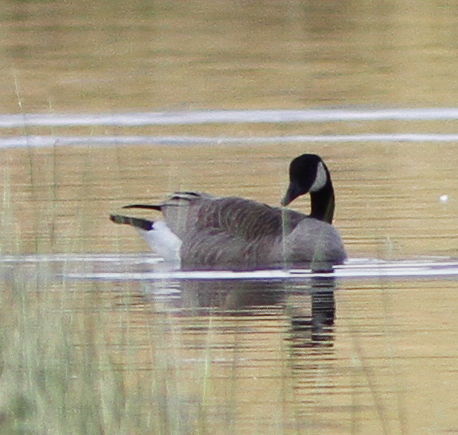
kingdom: Animalia
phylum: Chordata
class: Aves
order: Anseriformes
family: Anatidae
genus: Branta
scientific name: Branta canadensis
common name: Canada goose
